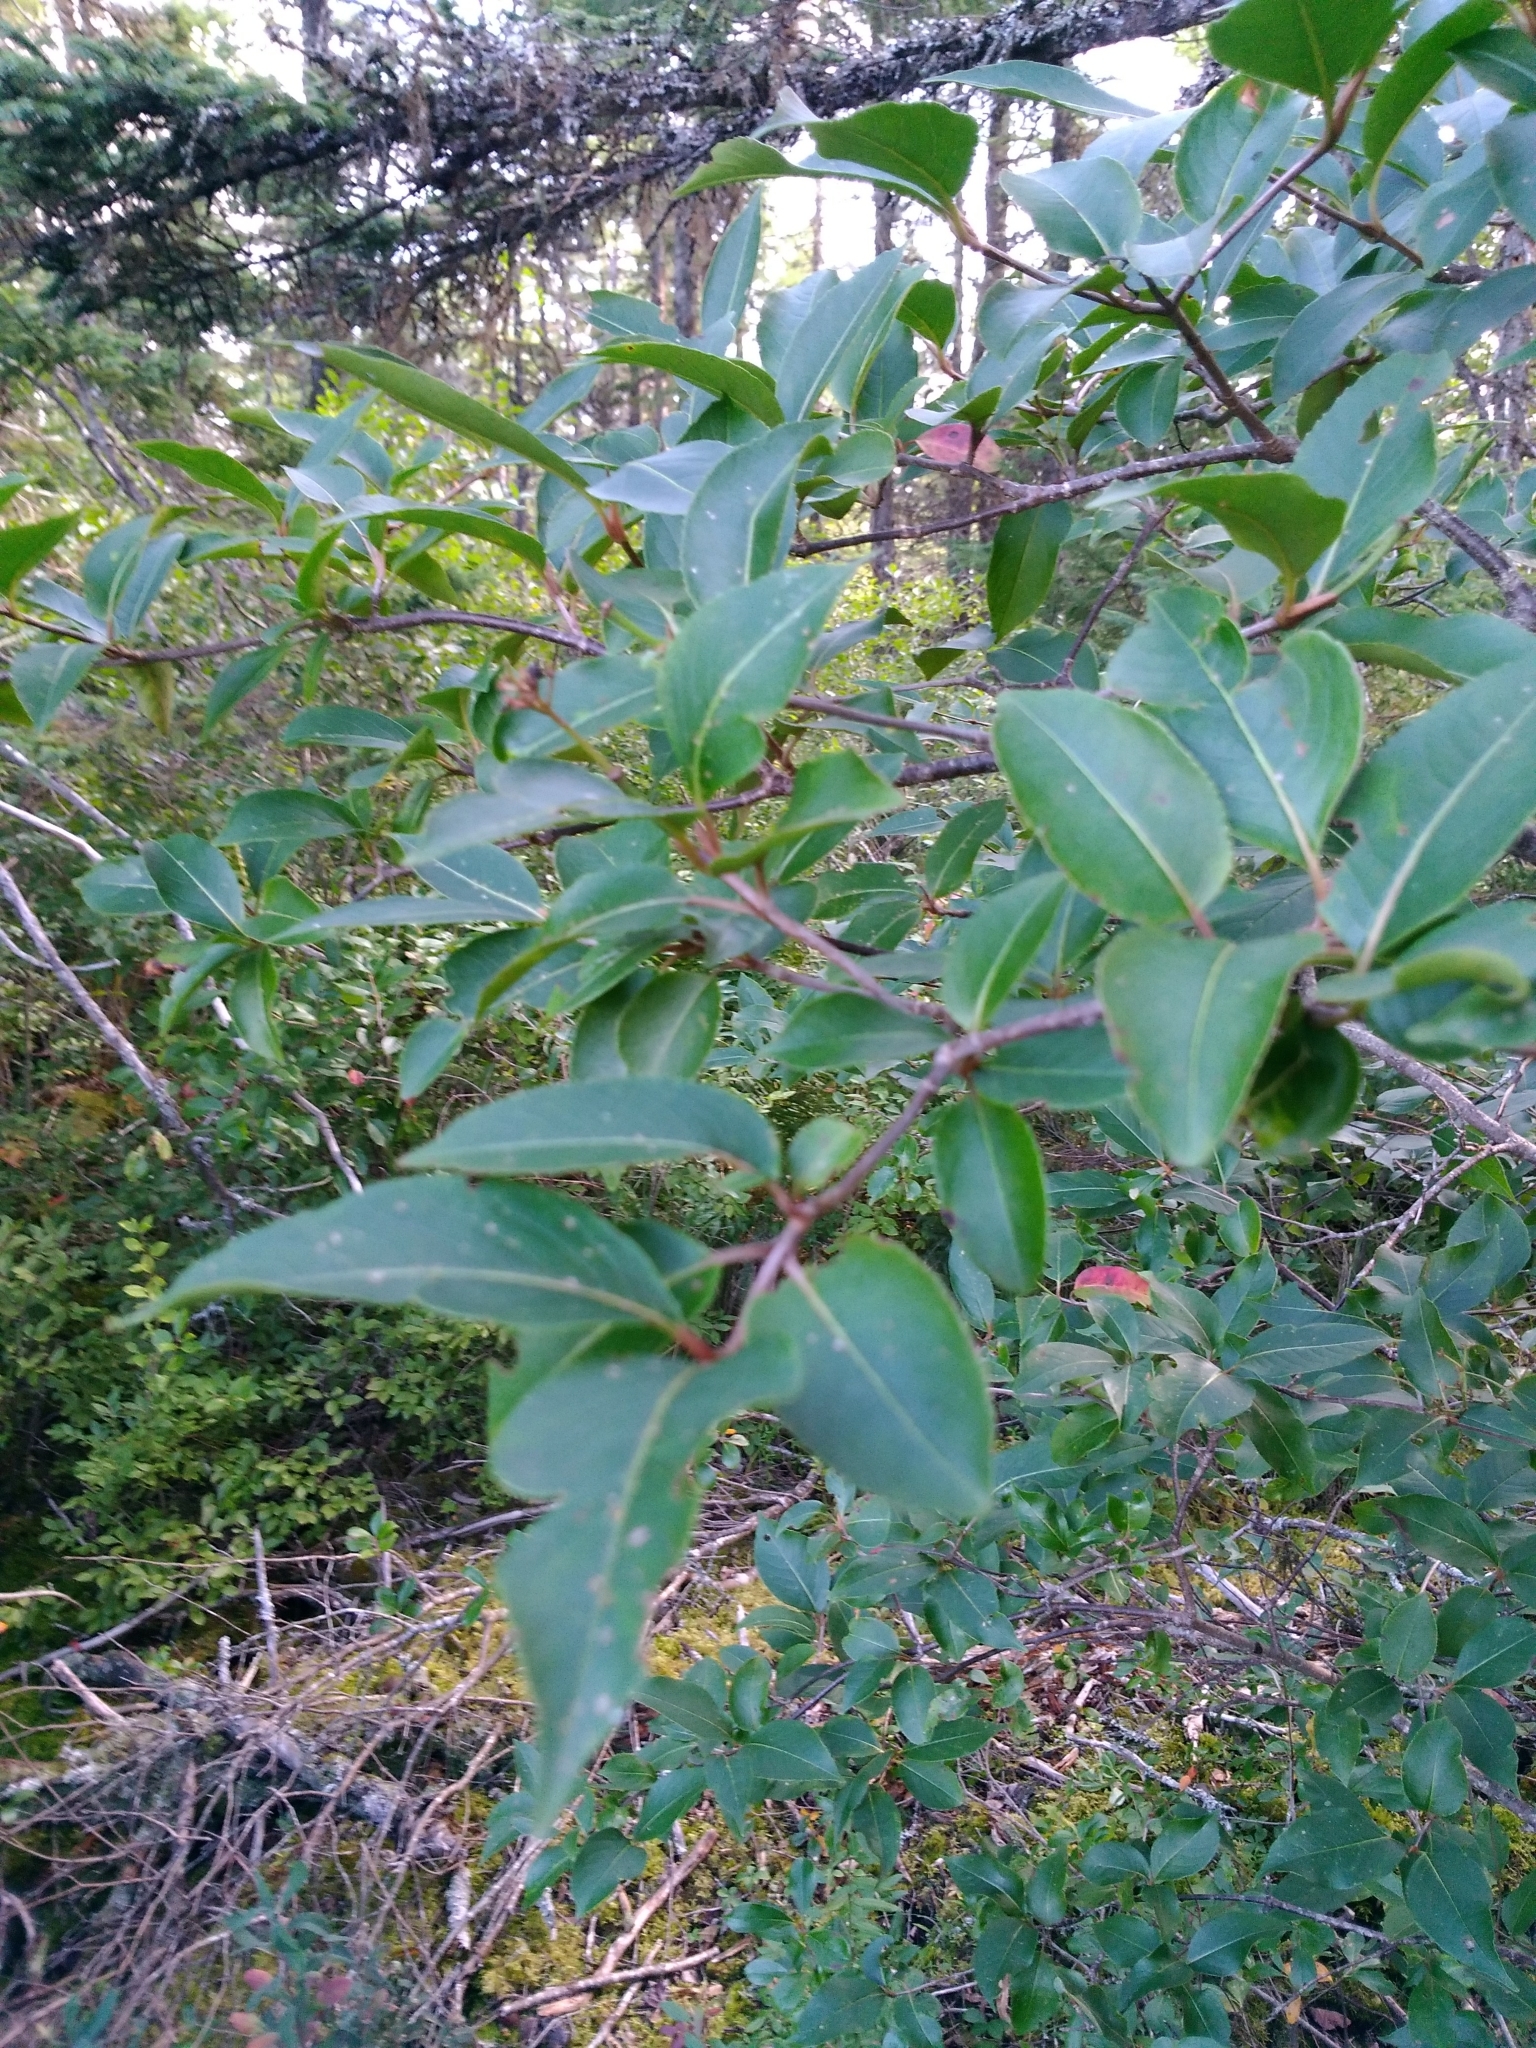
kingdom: Plantae
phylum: Tracheophyta
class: Magnoliopsida
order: Dipsacales
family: Viburnaceae
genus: Viburnum
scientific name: Viburnum cassinoides
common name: Swamp haw
